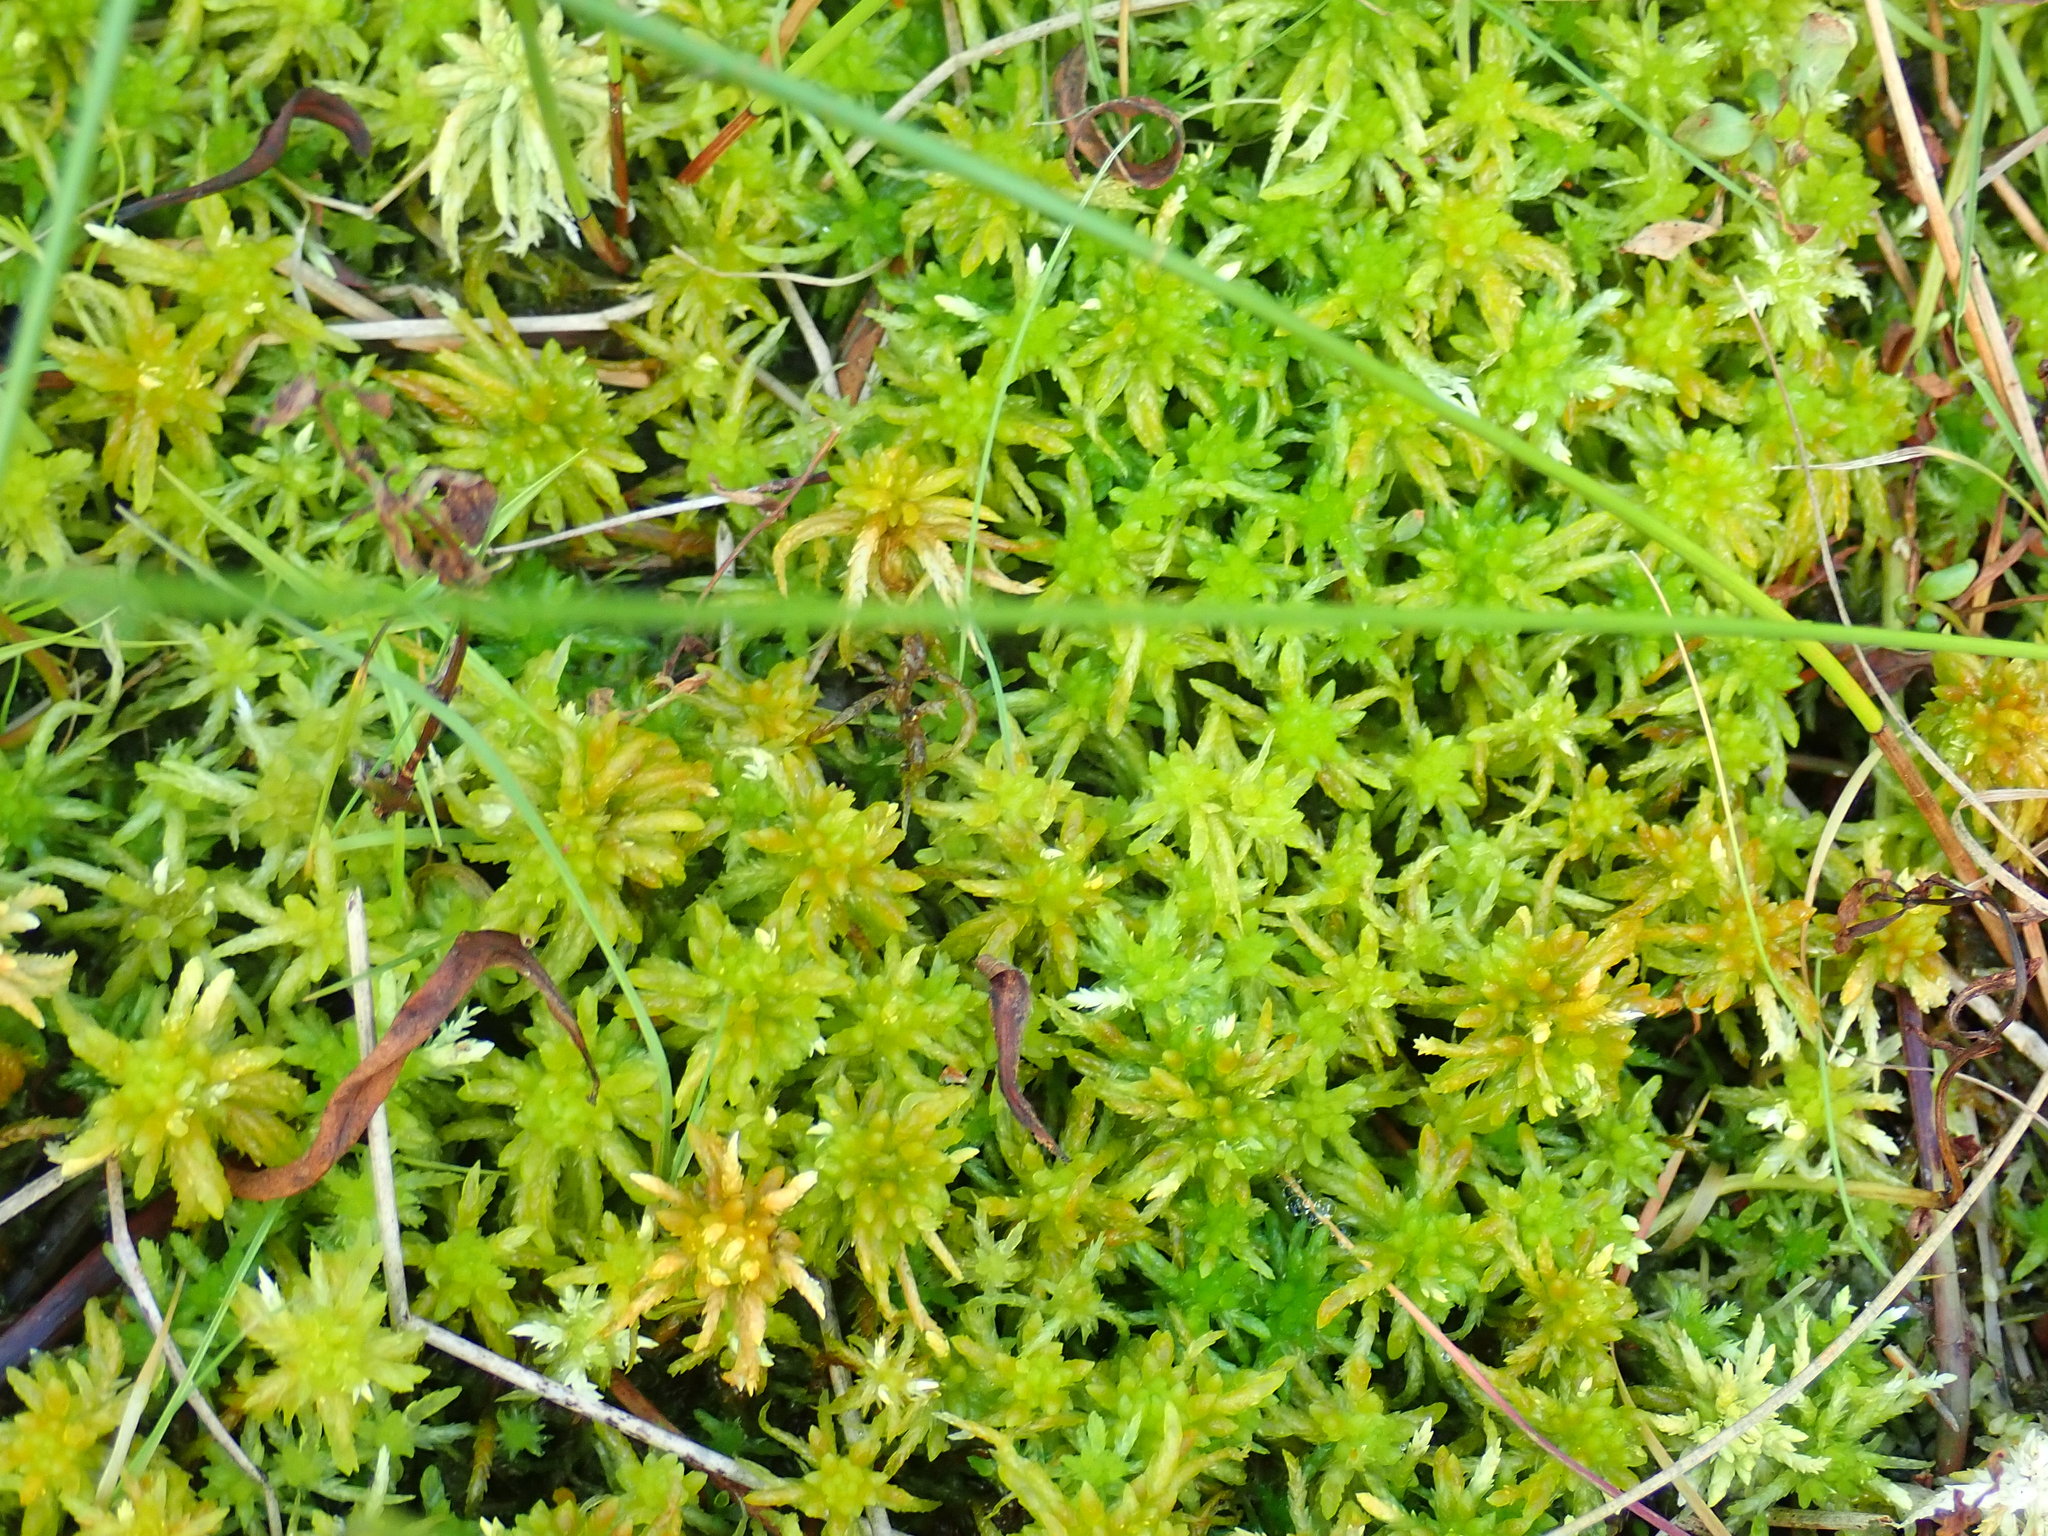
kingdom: Plantae
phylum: Bryophyta
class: Sphagnopsida
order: Sphagnales
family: Sphagnaceae
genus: Sphagnum
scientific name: Sphagnum
